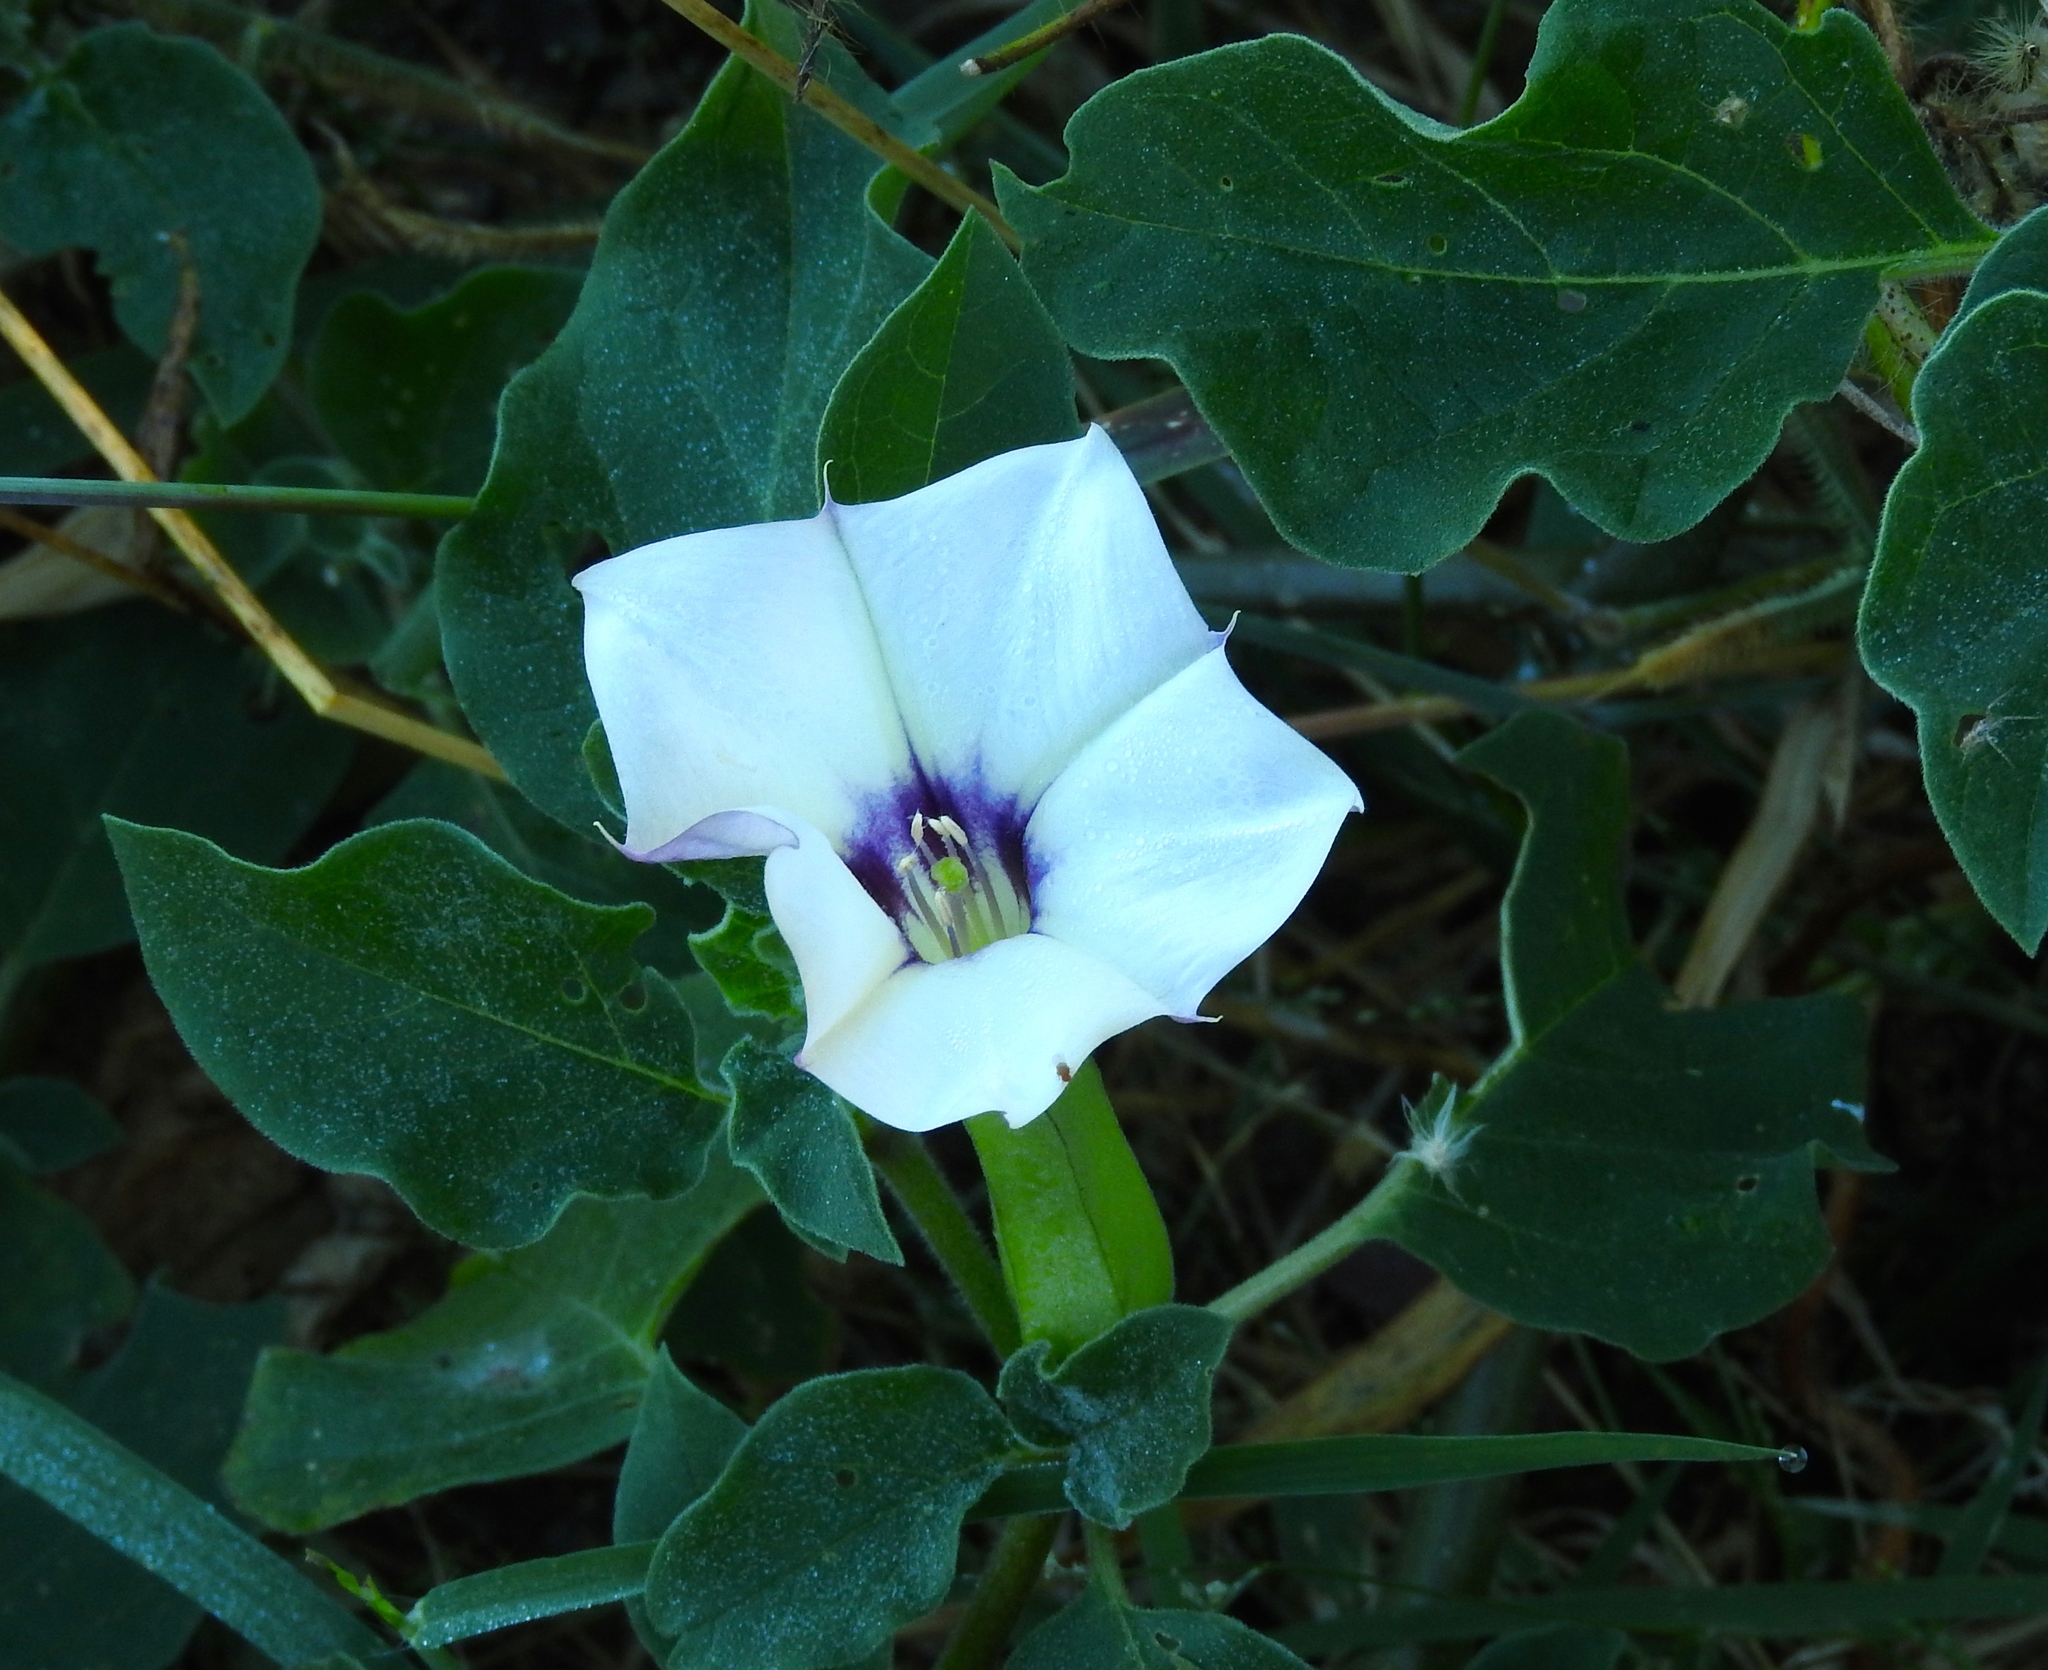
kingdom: Plantae
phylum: Tracheophyta
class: Magnoliopsida
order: Solanales
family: Solanaceae
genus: Datura
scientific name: Datura discolor
